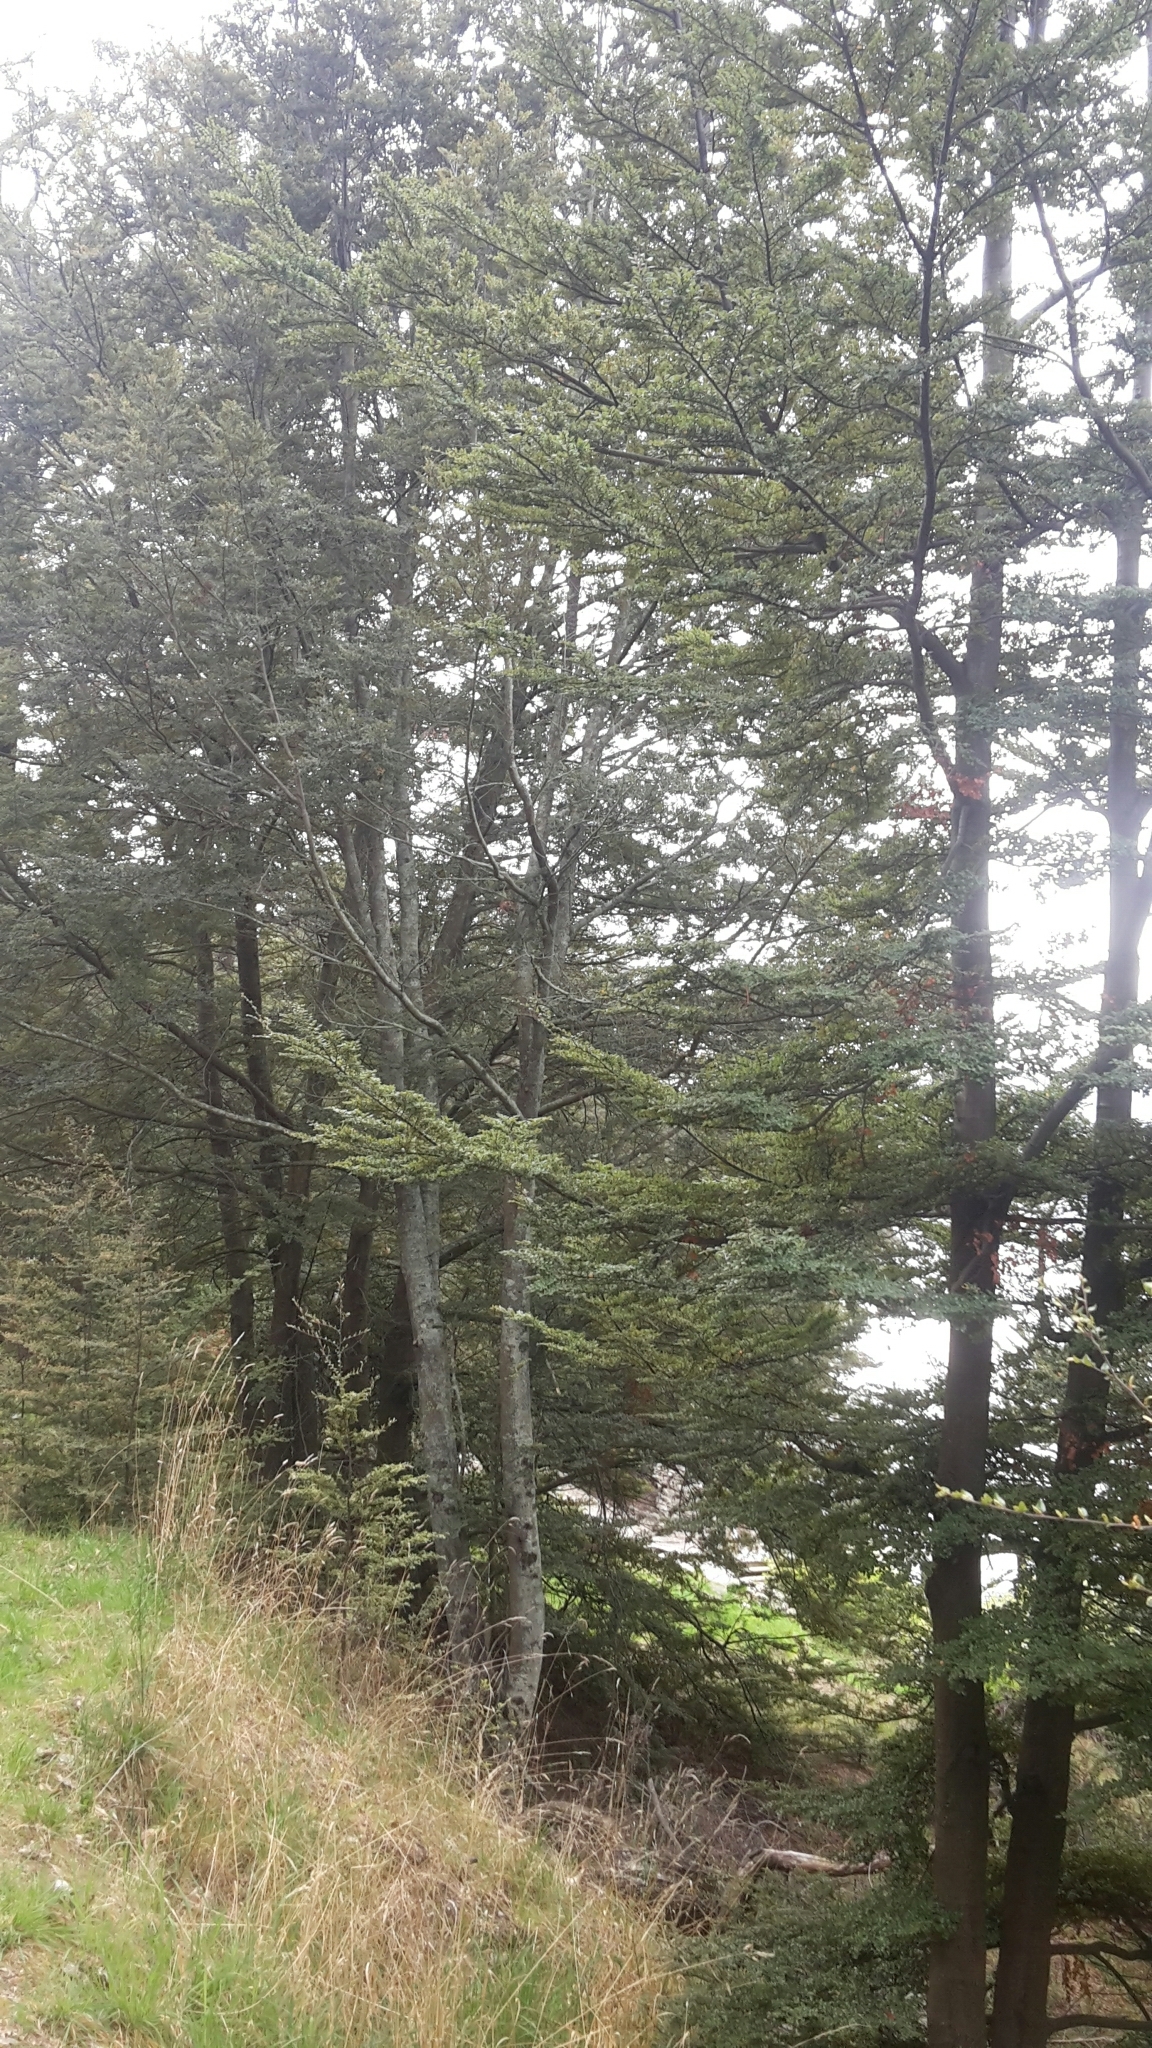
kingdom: Plantae
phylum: Tracheophyta
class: Magnoliopsida
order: Fagales
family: Nothofagaceae
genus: Nothofagus
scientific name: Nothofagus cliffortioides
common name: Mountain beech
